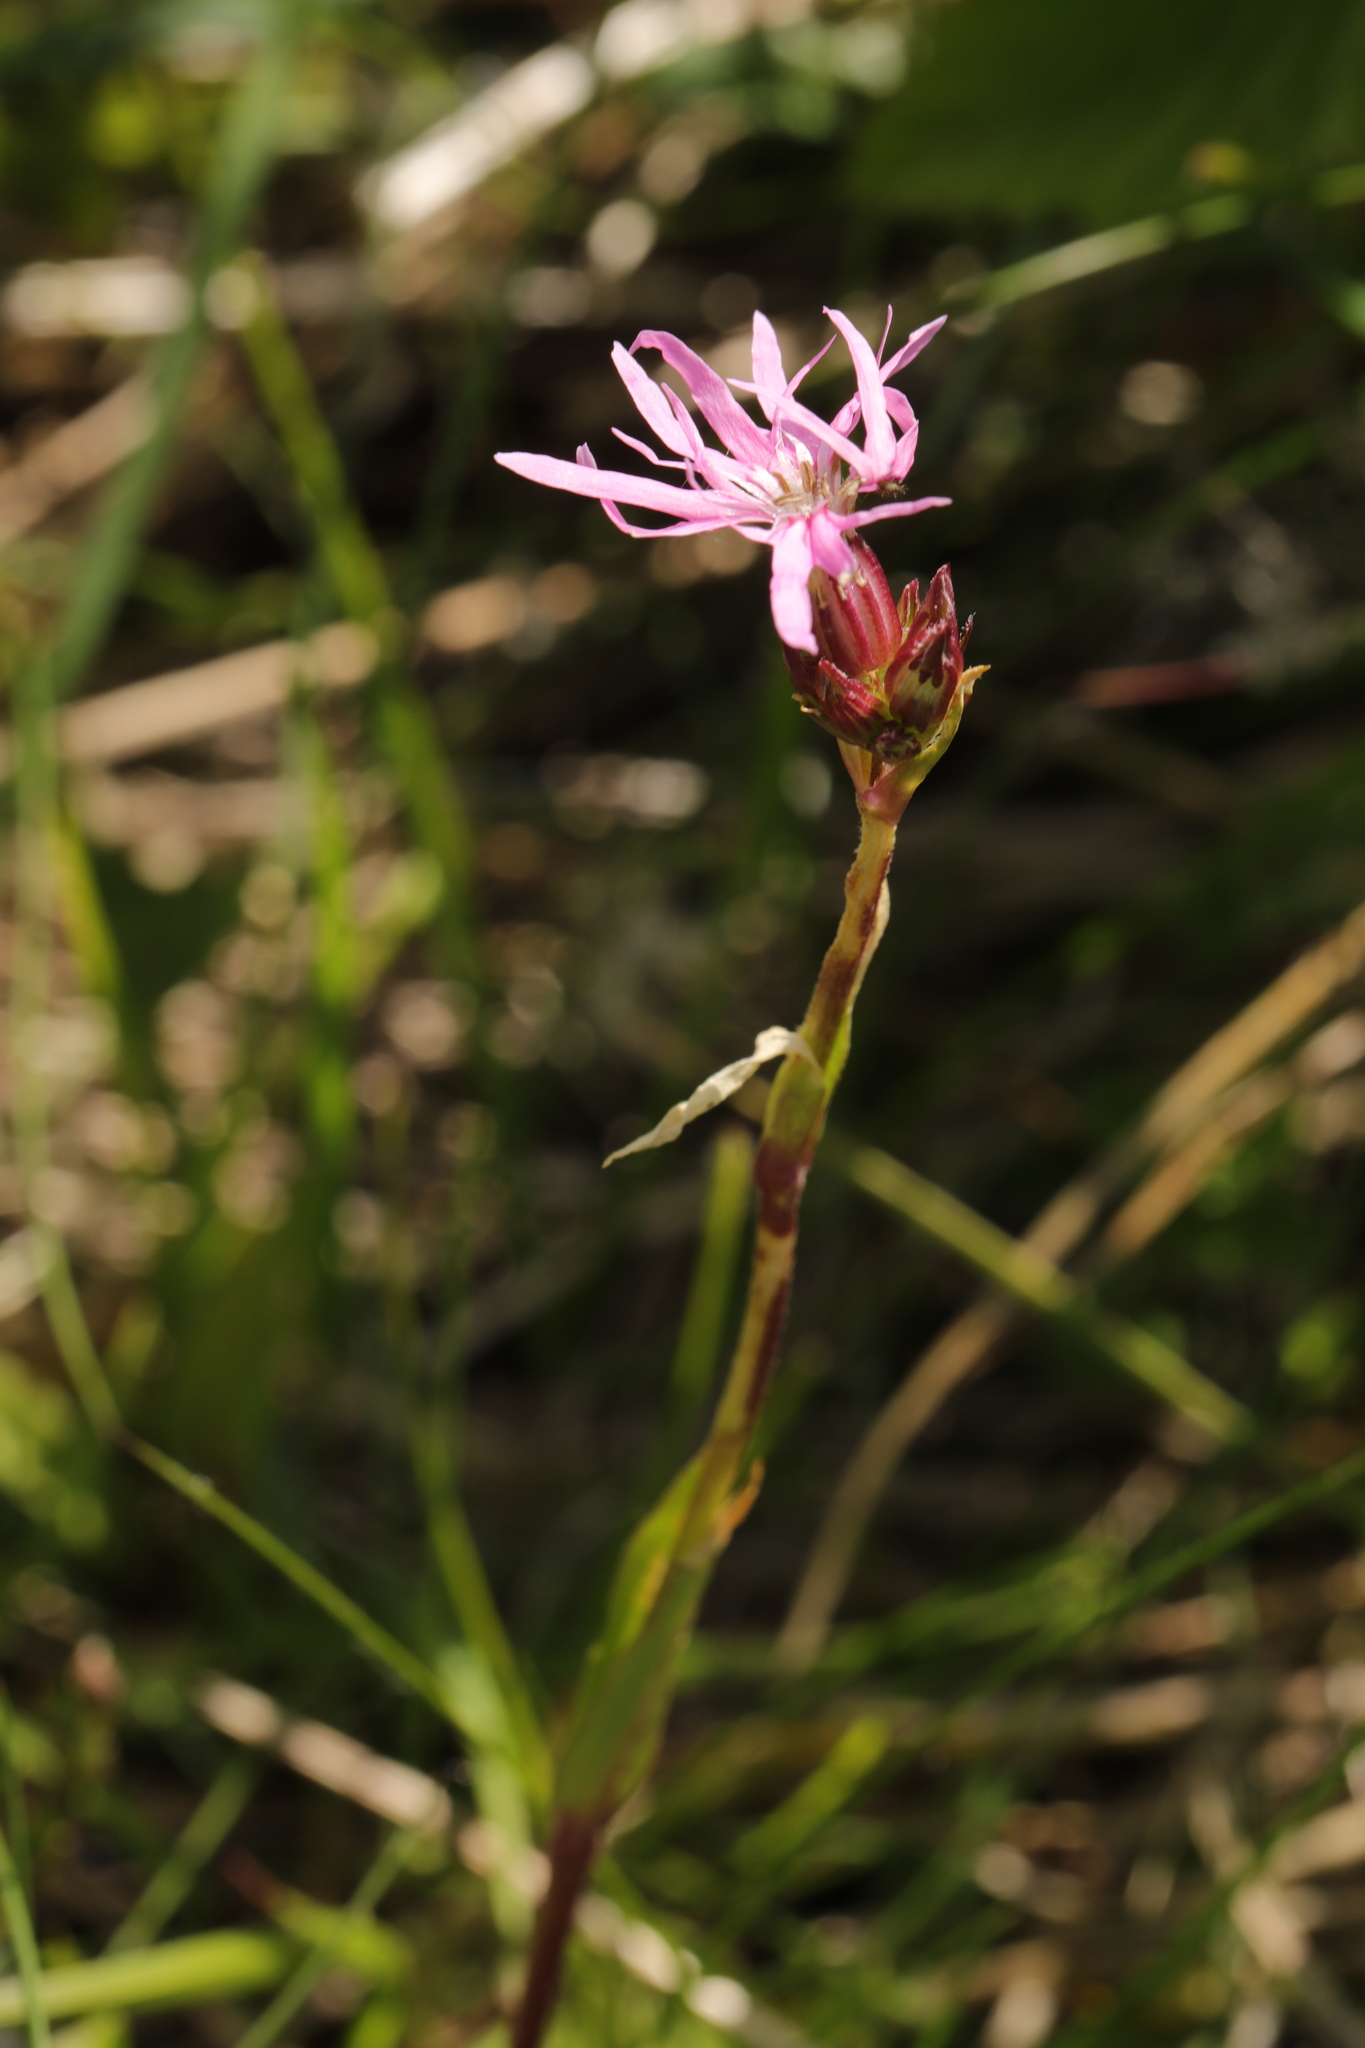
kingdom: Plantae
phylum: Tracheophyta
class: Magnoliopsida
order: Caryophyllales
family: Caryophyllaceae
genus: Silene
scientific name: Silene flos-cuculi
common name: Ragged-robin
